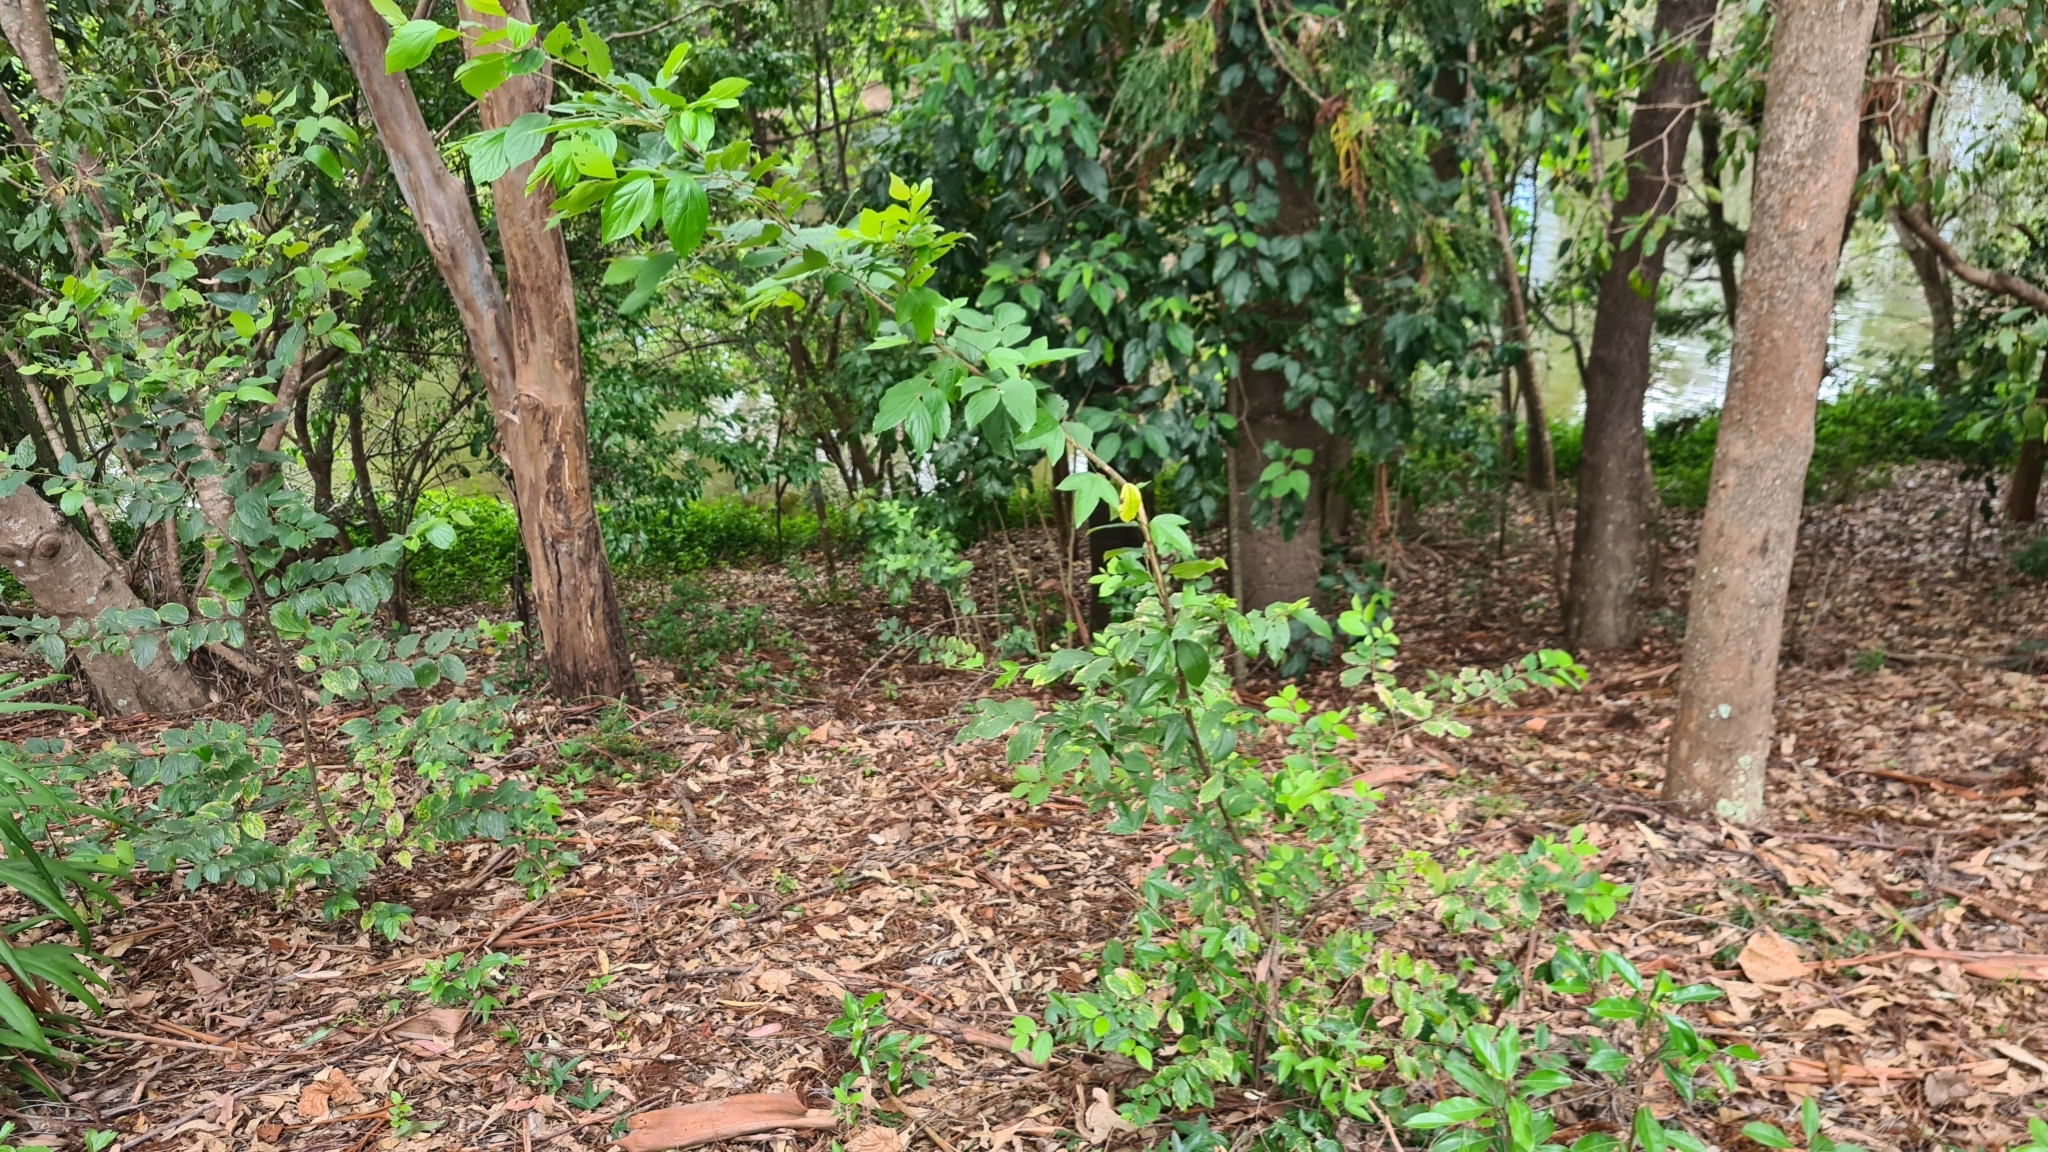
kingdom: Plantae
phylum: Tracheophyta
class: Magnoliopsida
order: Malpighiales
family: Passifloraceae
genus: Passiflora
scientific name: Passiflora suberosa
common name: Wild passionfruit
